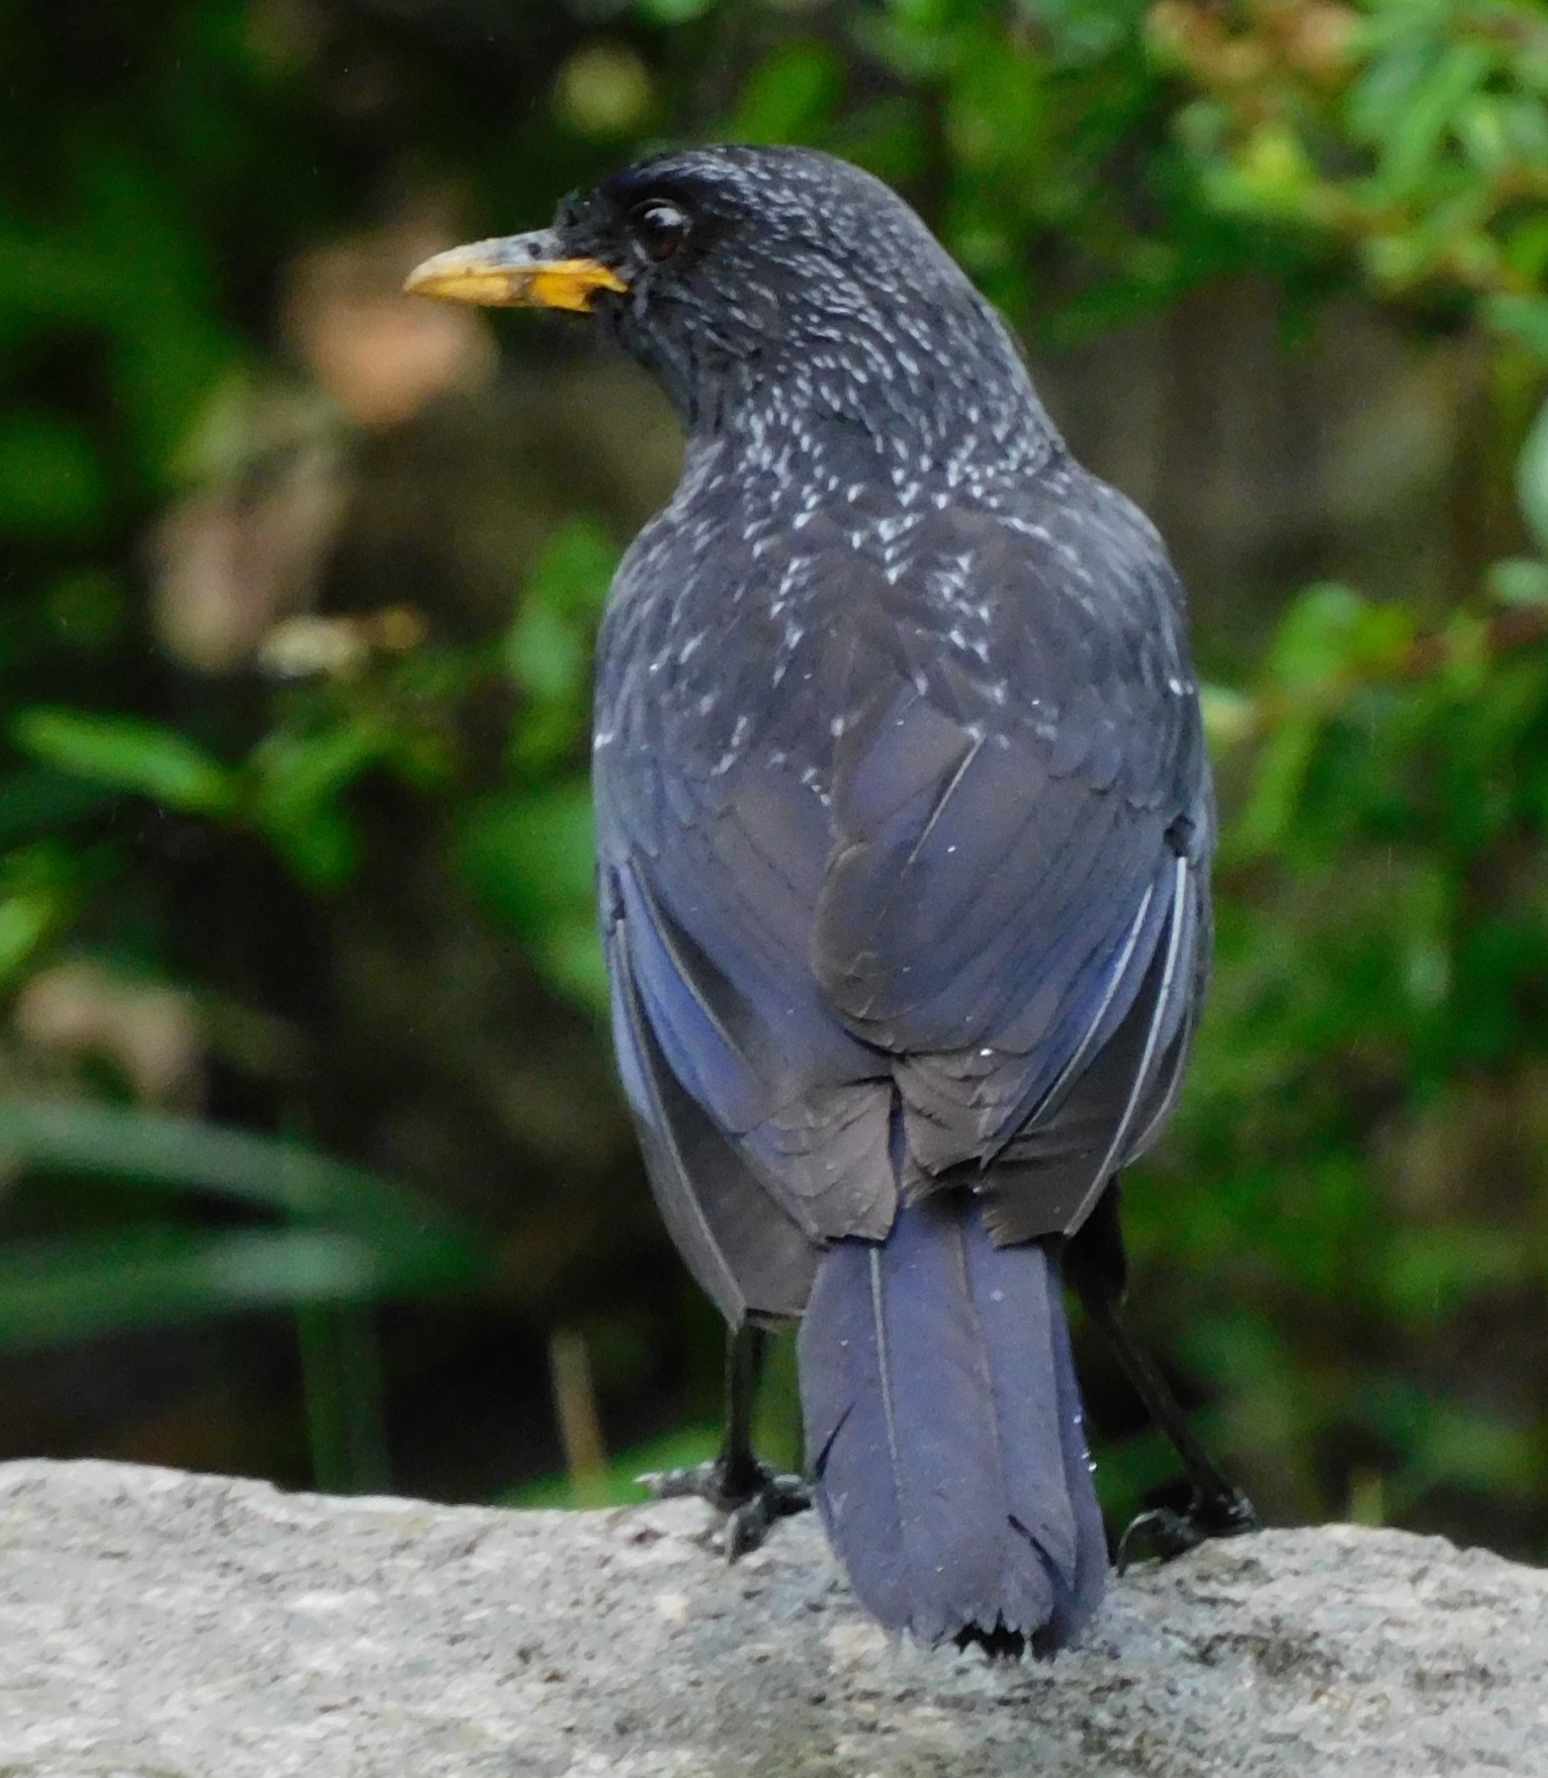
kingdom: Animalia
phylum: Chordata
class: Aves
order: Passeriformes
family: Muscicapidae
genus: Myophonus
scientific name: Myophonus caeruleus
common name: Blue whistling-thrush
